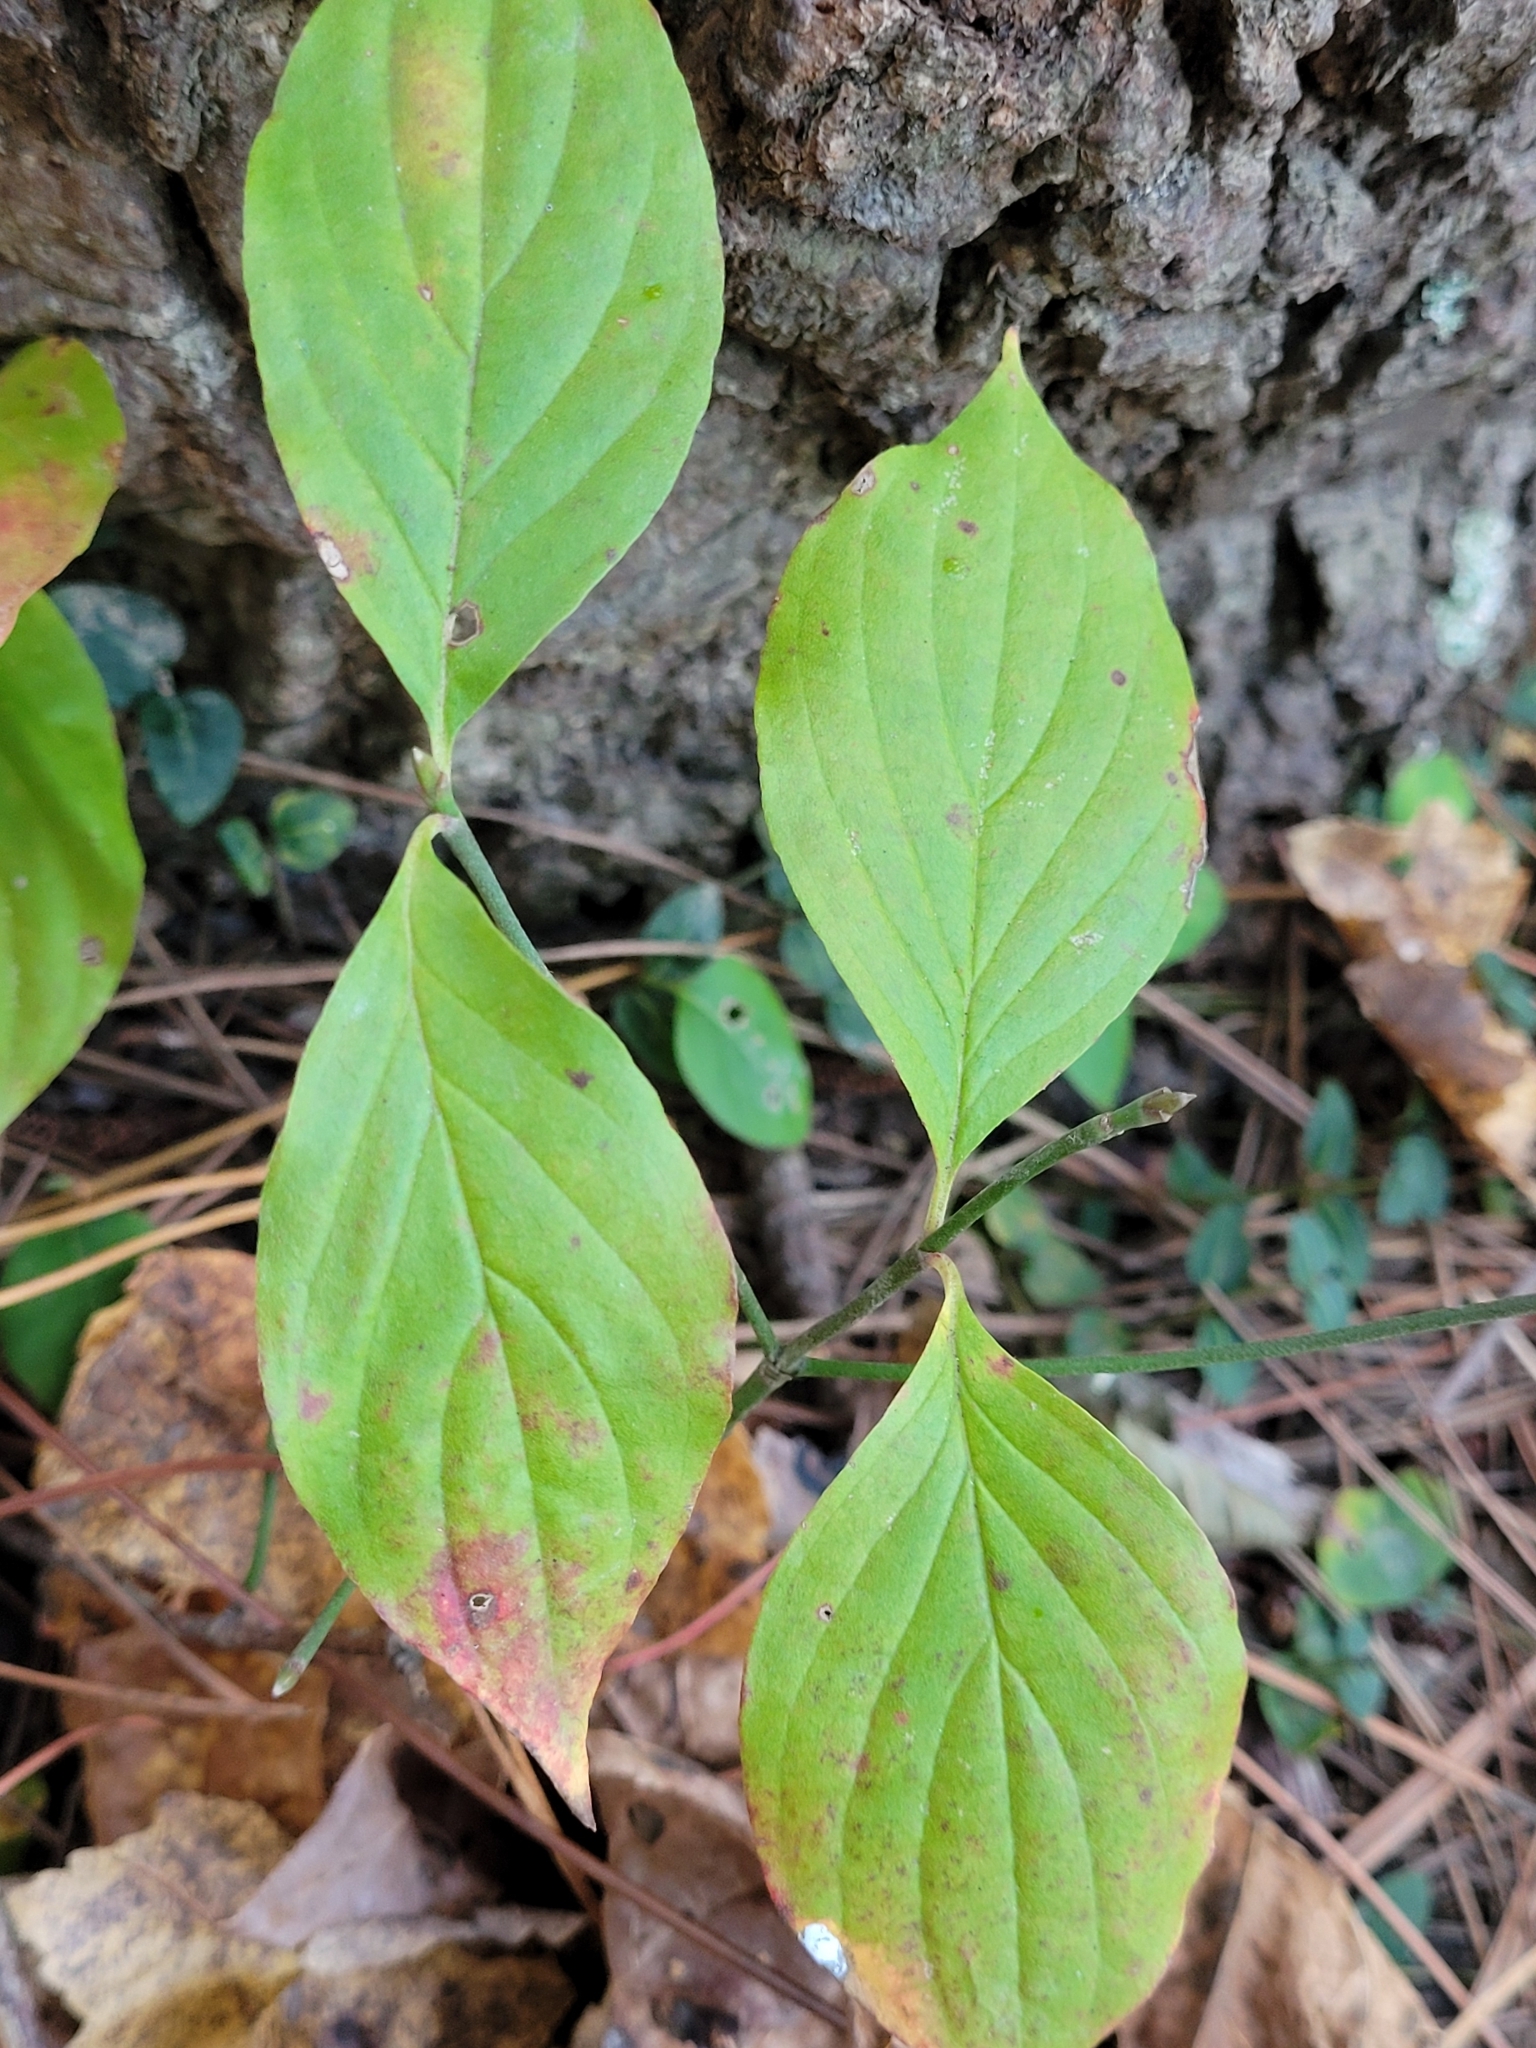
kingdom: Plantae
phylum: Tracheophyta
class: Magnoliopsida
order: Cornales
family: Cornaceae
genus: Cornus
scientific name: Cornus florida
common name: Flowering dogwood
